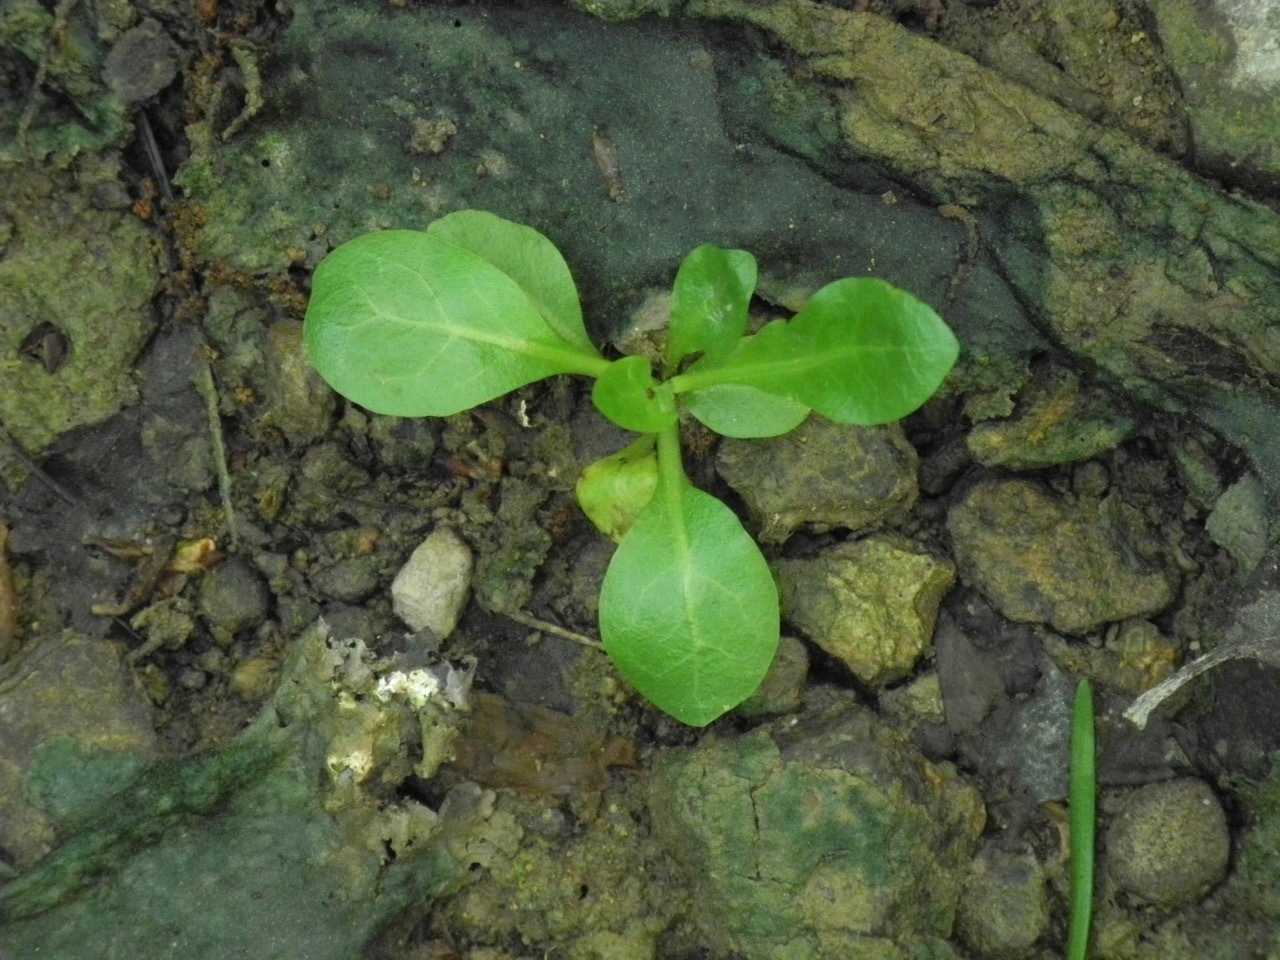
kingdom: Plantae
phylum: Tracheophyta
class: Magnoliopsida
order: Ericales
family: Primulaceae
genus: Samolus
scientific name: Samolus parviflorus
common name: False water pimpernel
